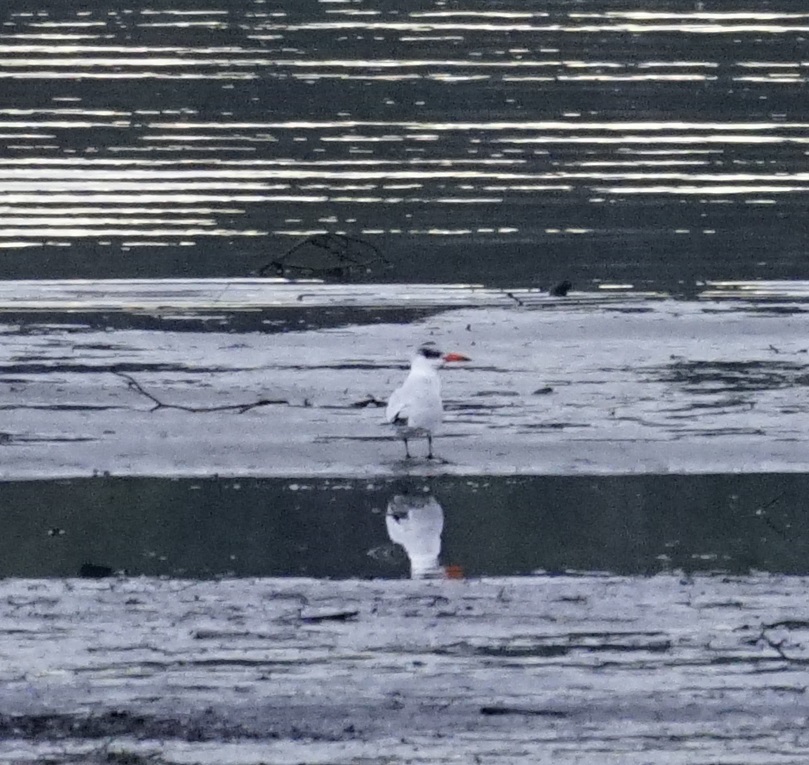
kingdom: Animalia
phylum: Chordata
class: Aves
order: Charadriiformes
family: Laridae
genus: Hydroprogne
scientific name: Hydroprogne caspia
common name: Caspian tern
